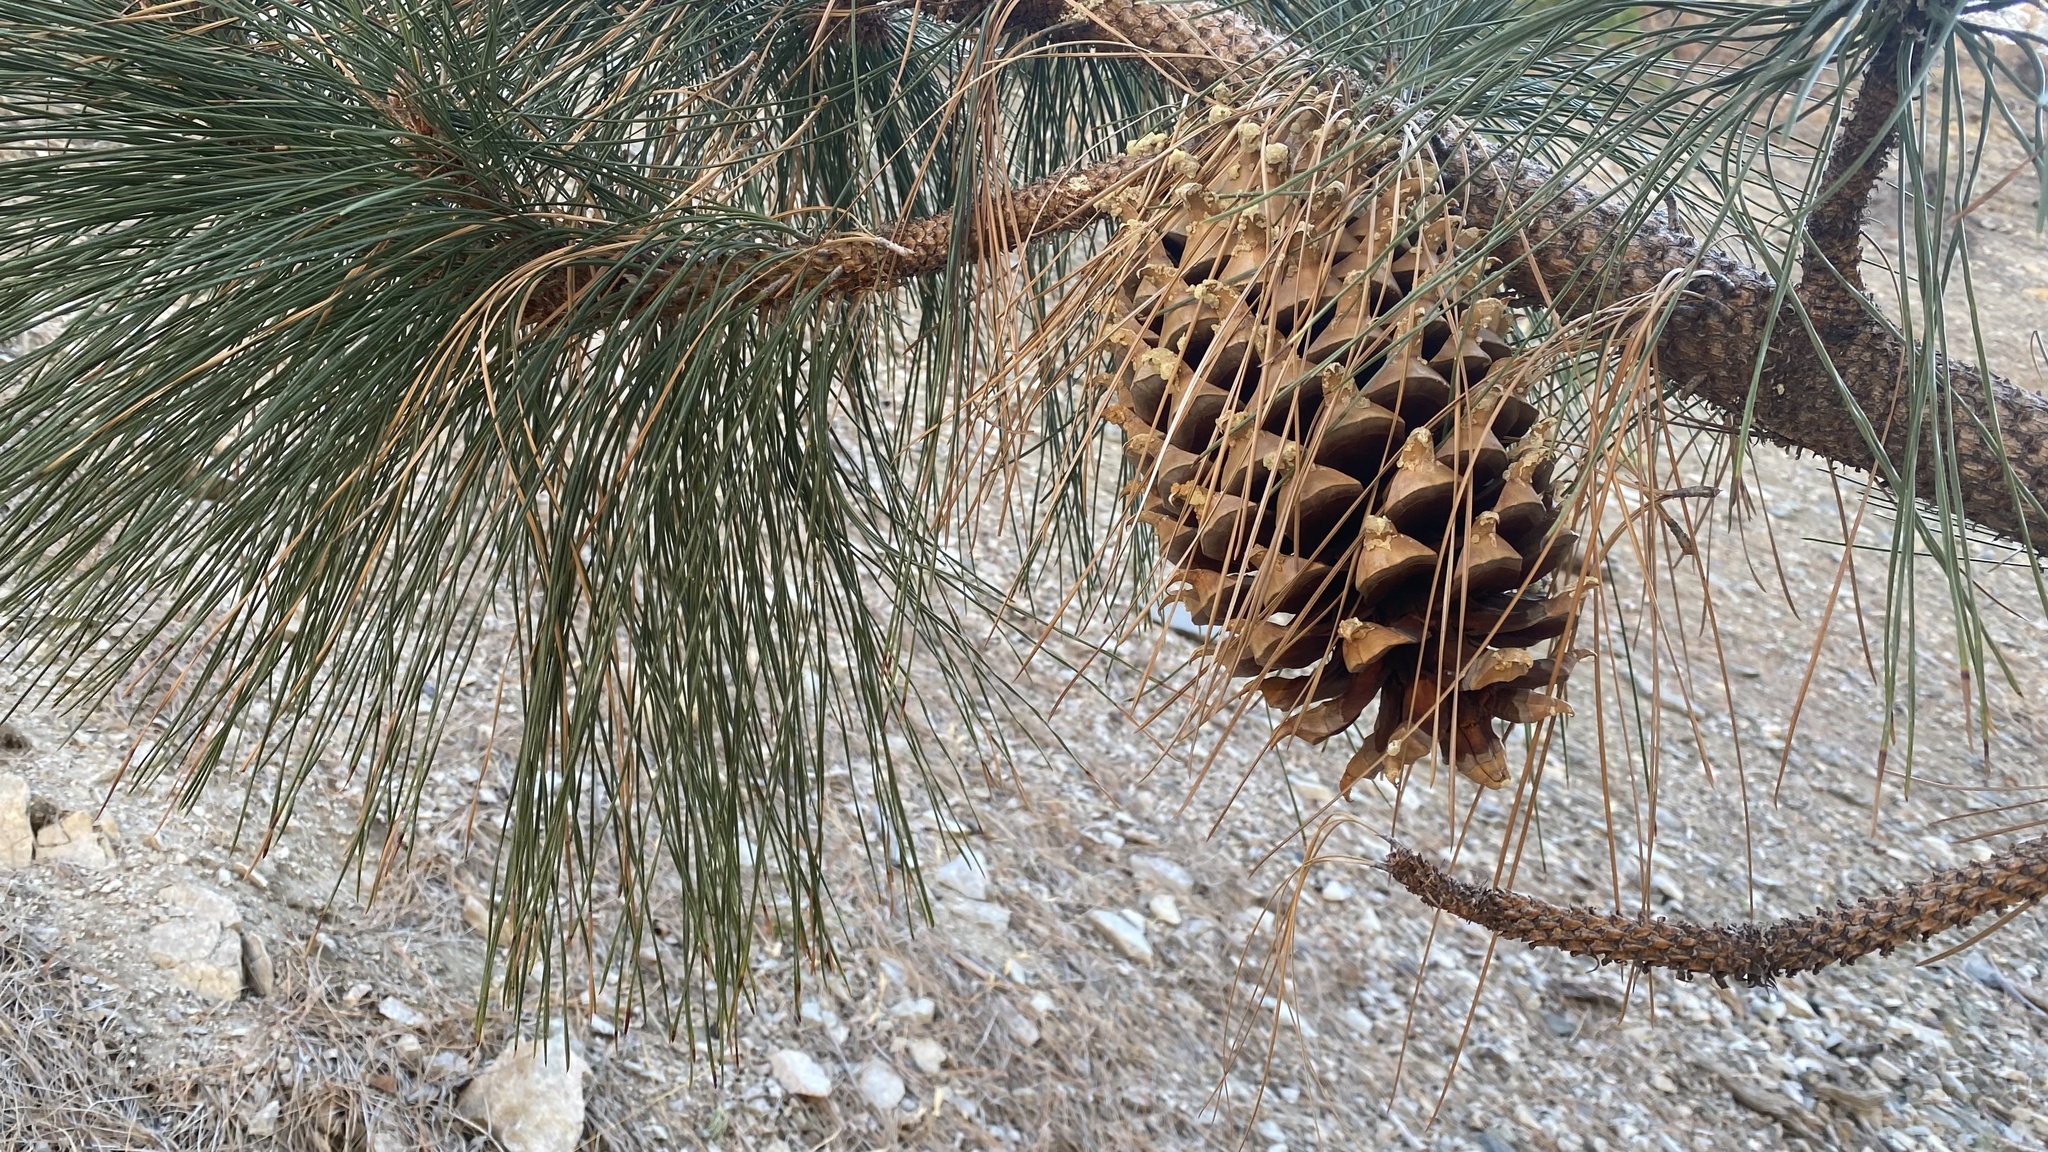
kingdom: Plantae
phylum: Tracheophyta
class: Pinopsida
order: Pinales
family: Pinaceae
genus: Pinus
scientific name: Pinus coulteri
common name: Coulter pine
